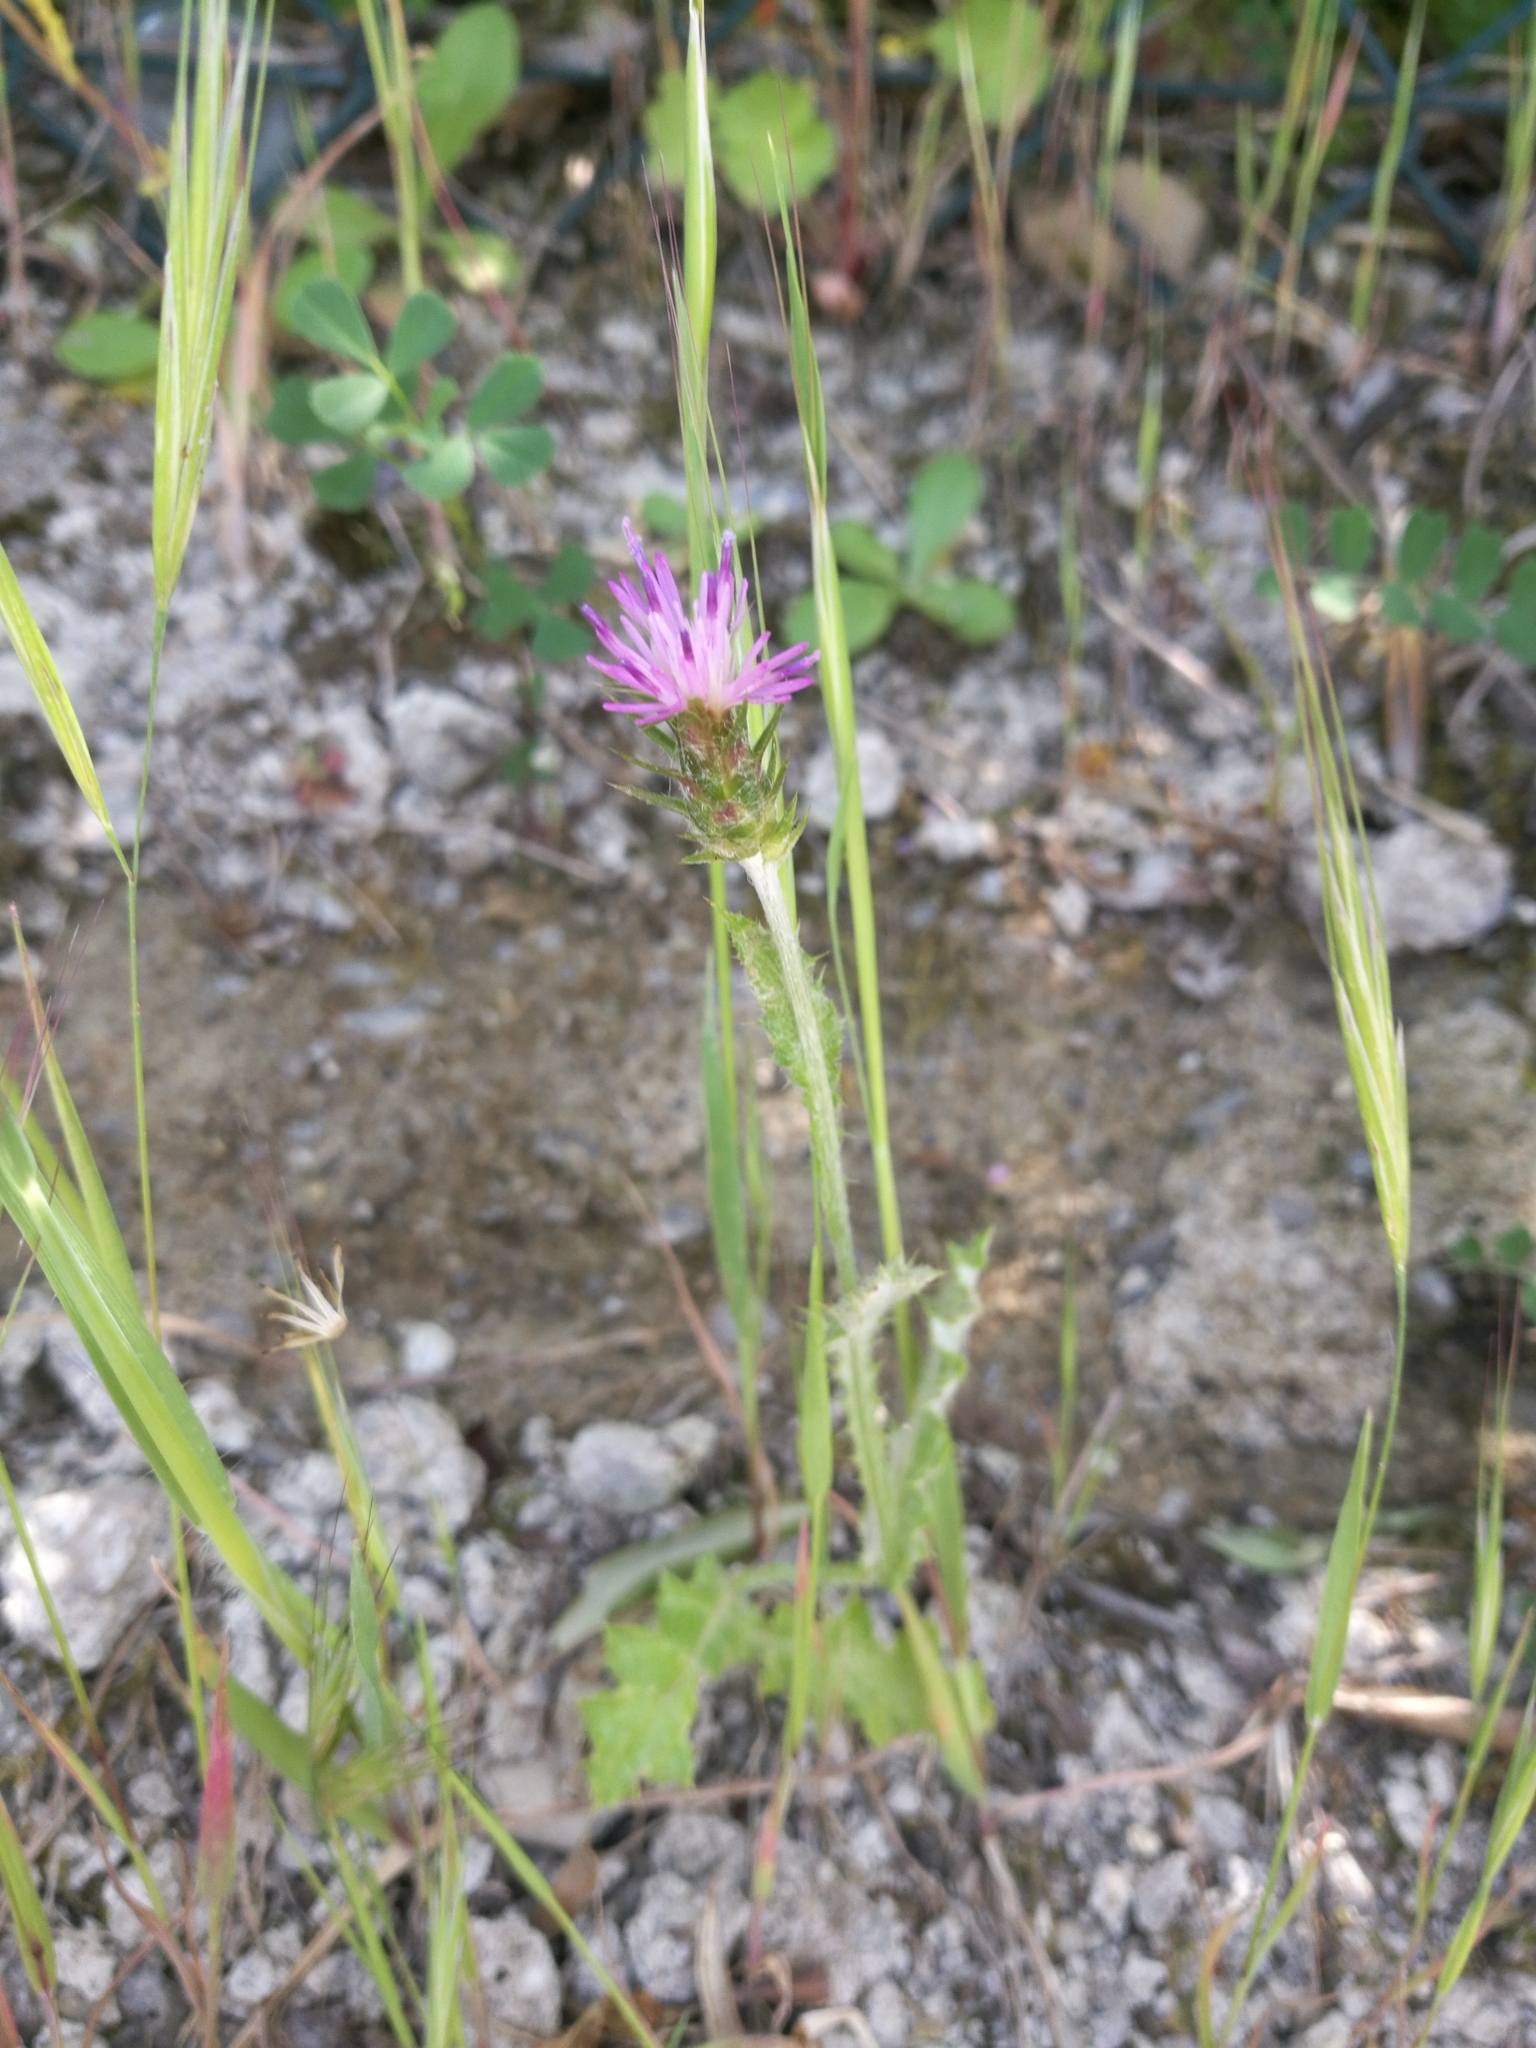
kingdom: Plantae
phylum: Tracheophyta
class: Magnoliopsida
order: Asterales
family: Asteraceae
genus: Carduus
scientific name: Carduus pycnocephalus
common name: Plymouth thistle
